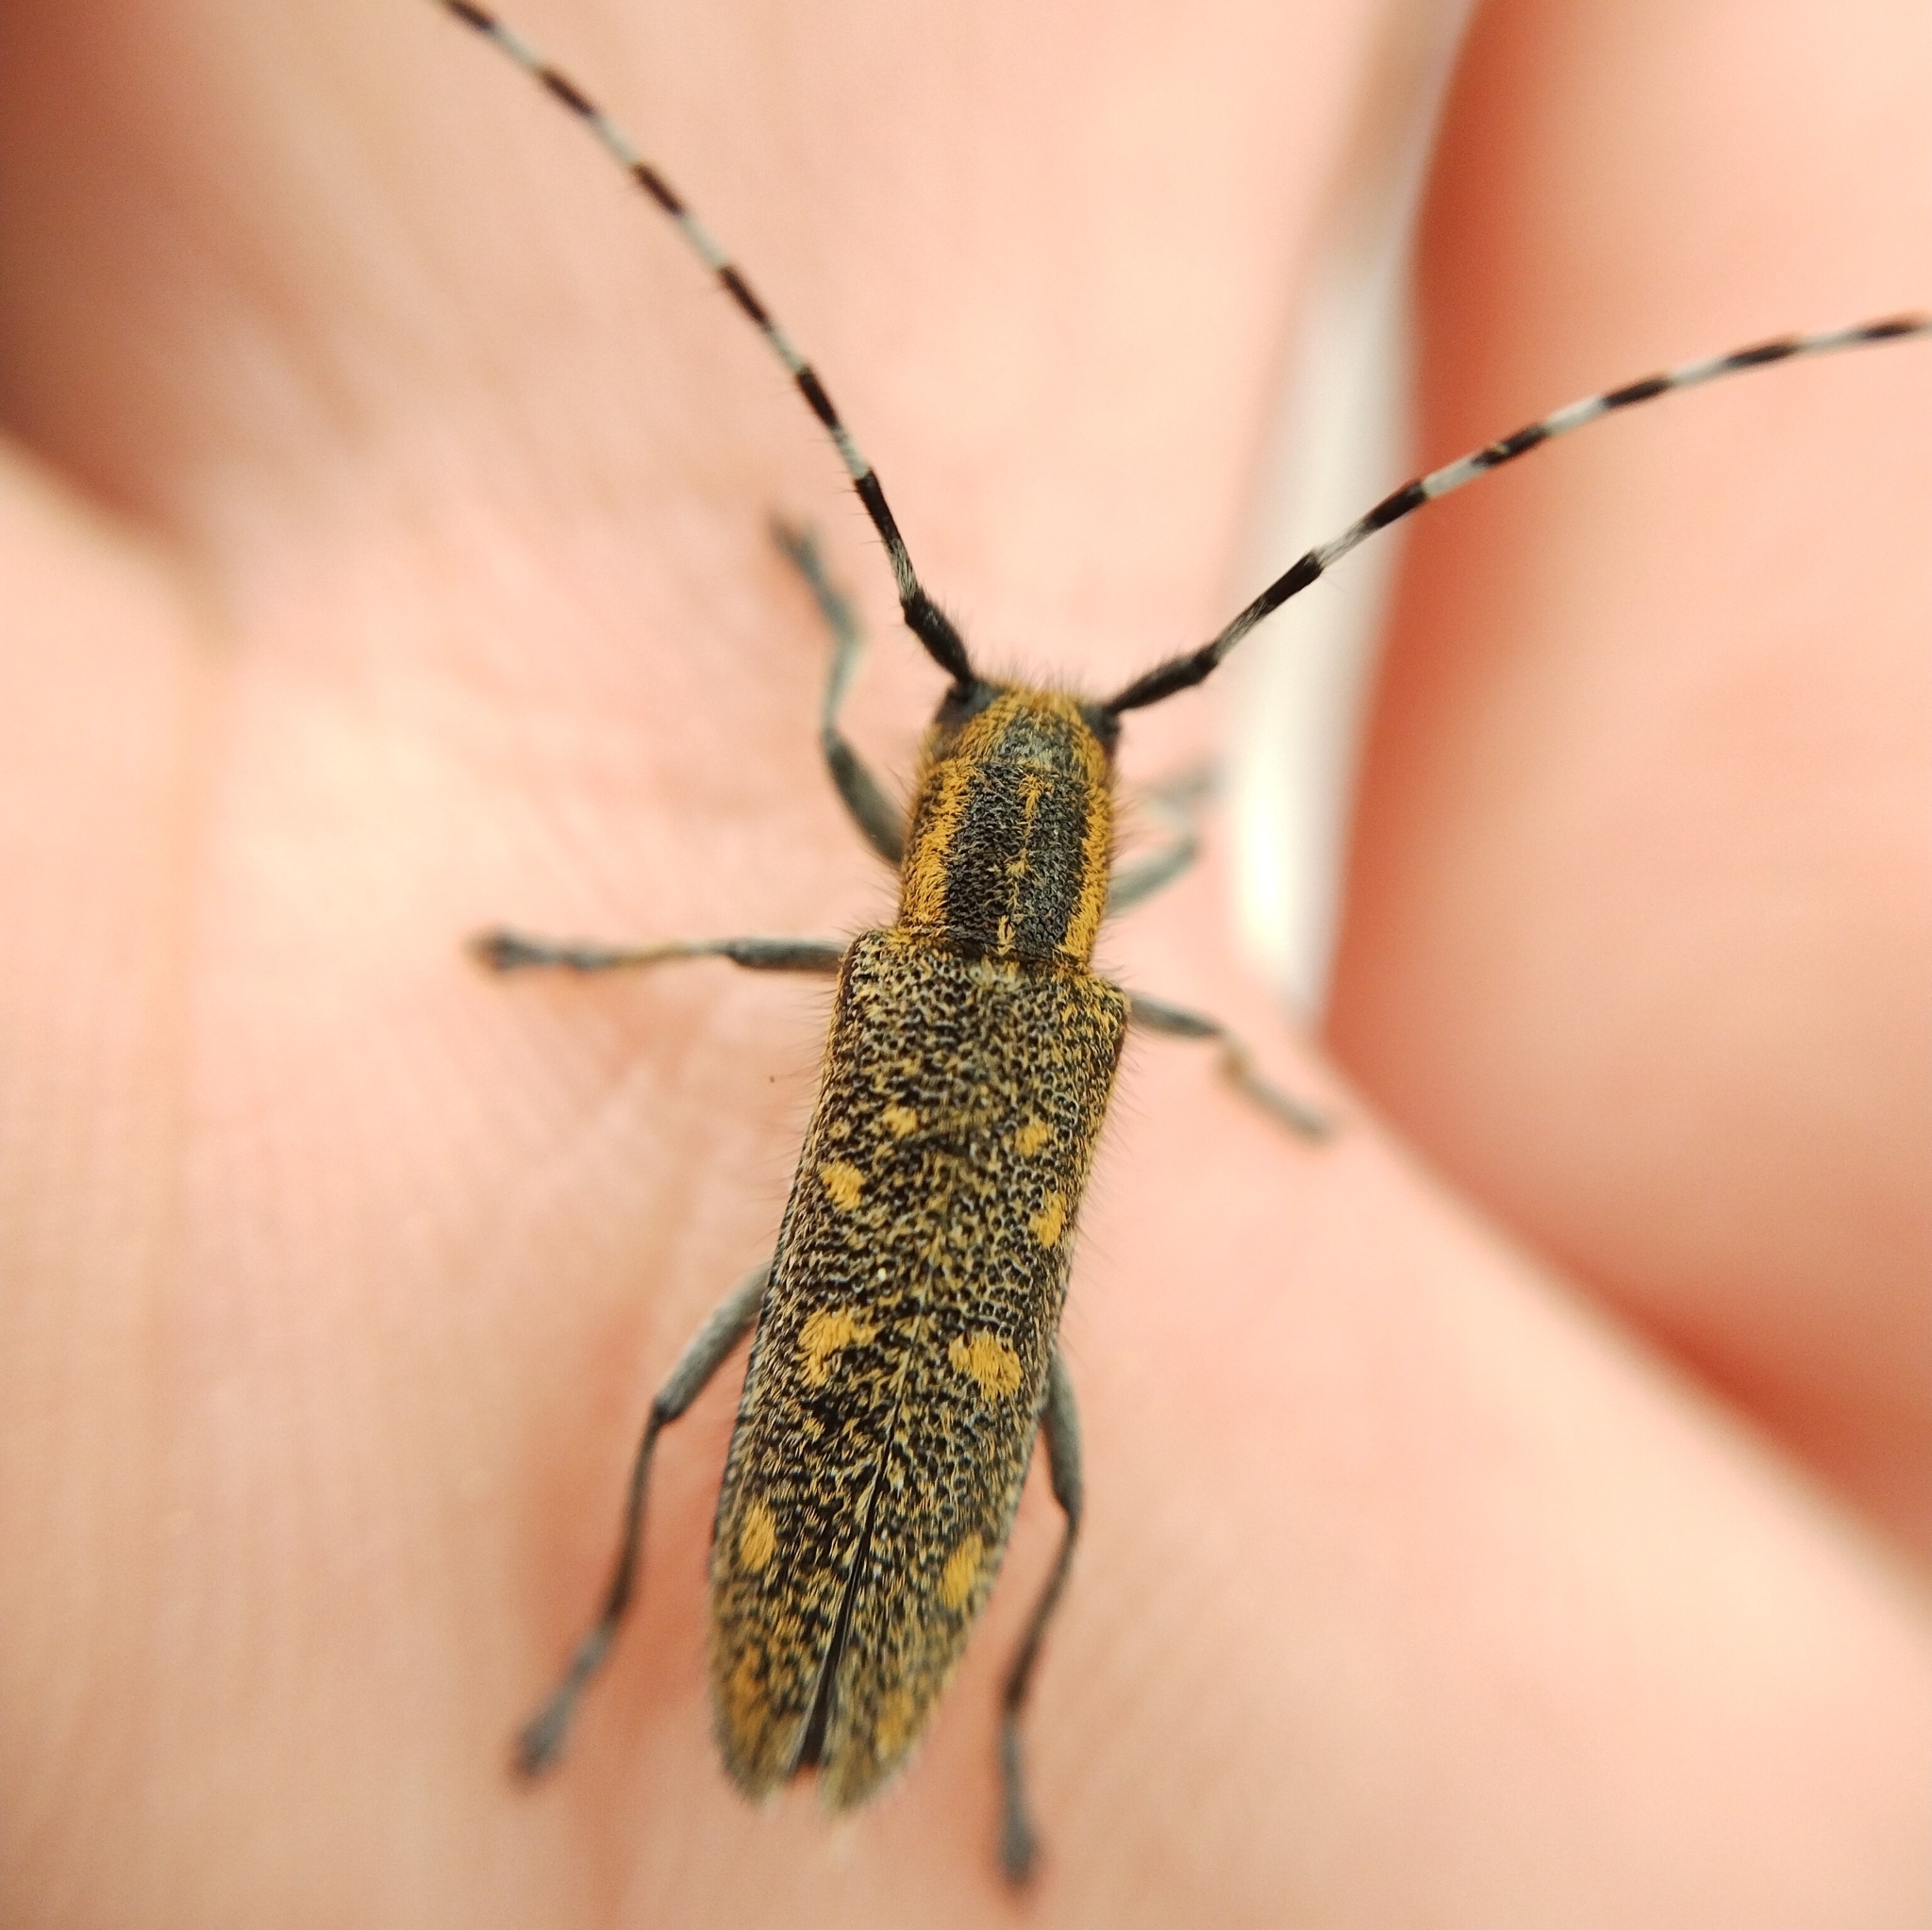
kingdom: Animalia
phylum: Arthropoda
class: Insecta
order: Coleoptera
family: Cerambycidae
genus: Saperda
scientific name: Saperda populnea
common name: Small poplar borer
